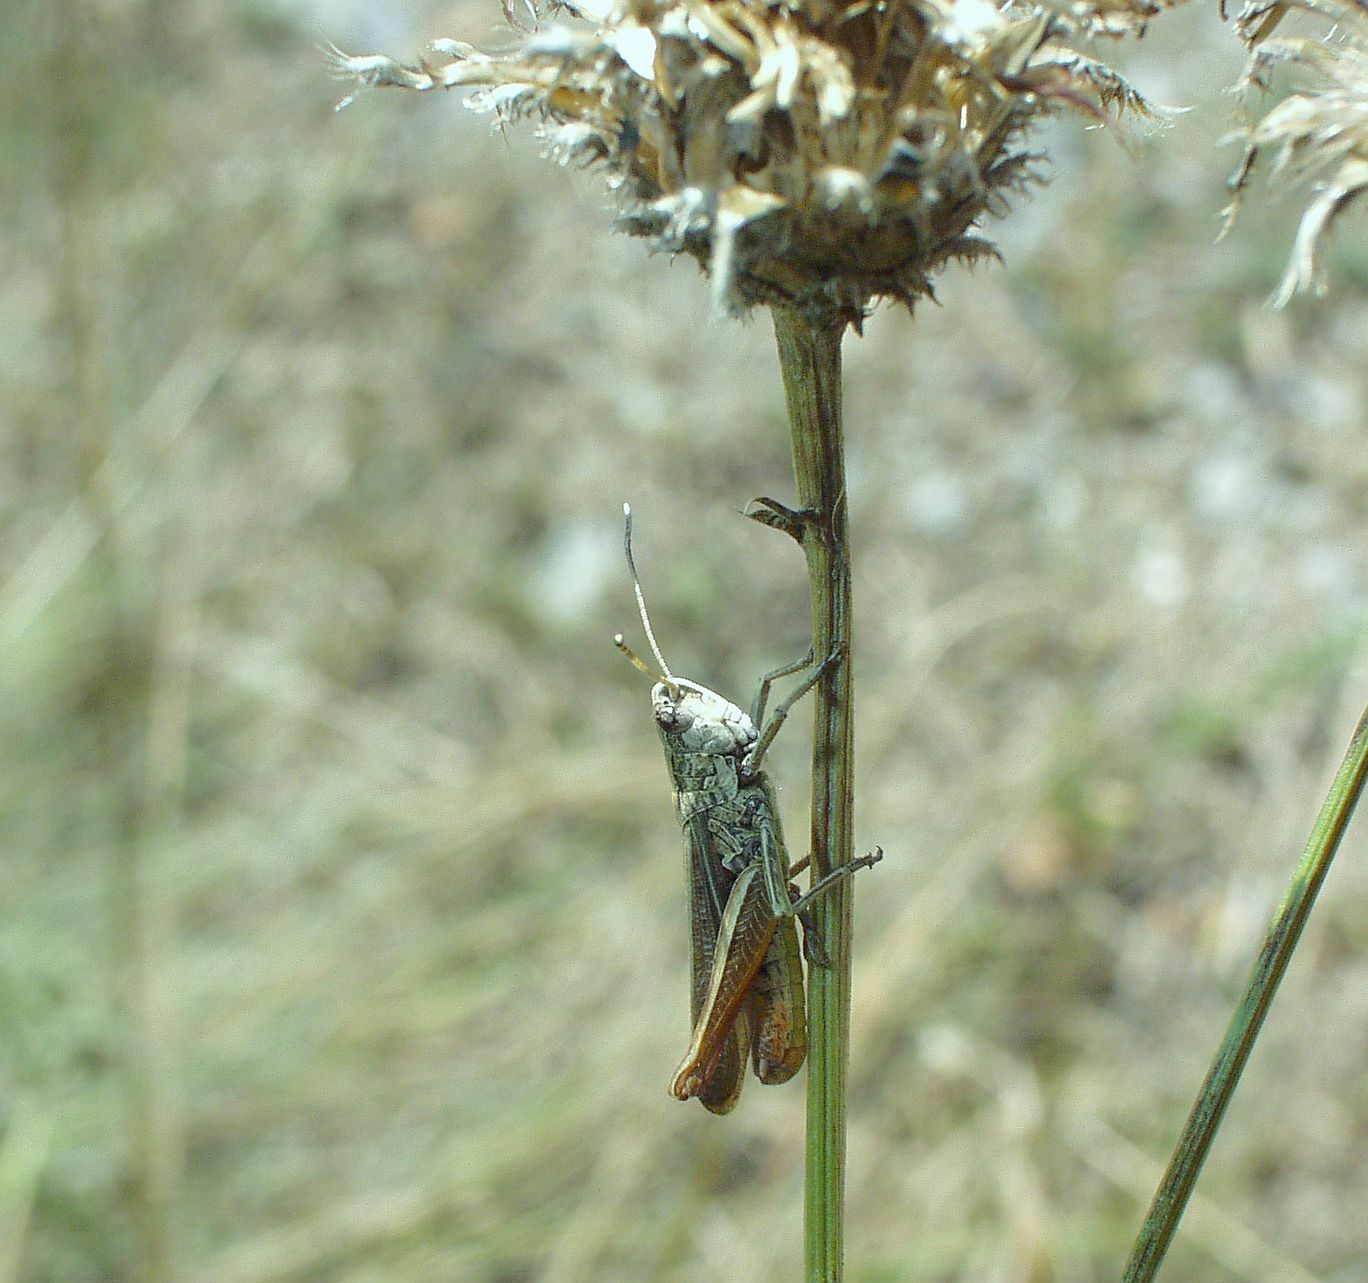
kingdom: Animalia
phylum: Arthropoda
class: Insecta
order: Orthoptera
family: Acrididae
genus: Gomphocerippus
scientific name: Gomphocerippus rufus
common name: Rufous grasshopper
